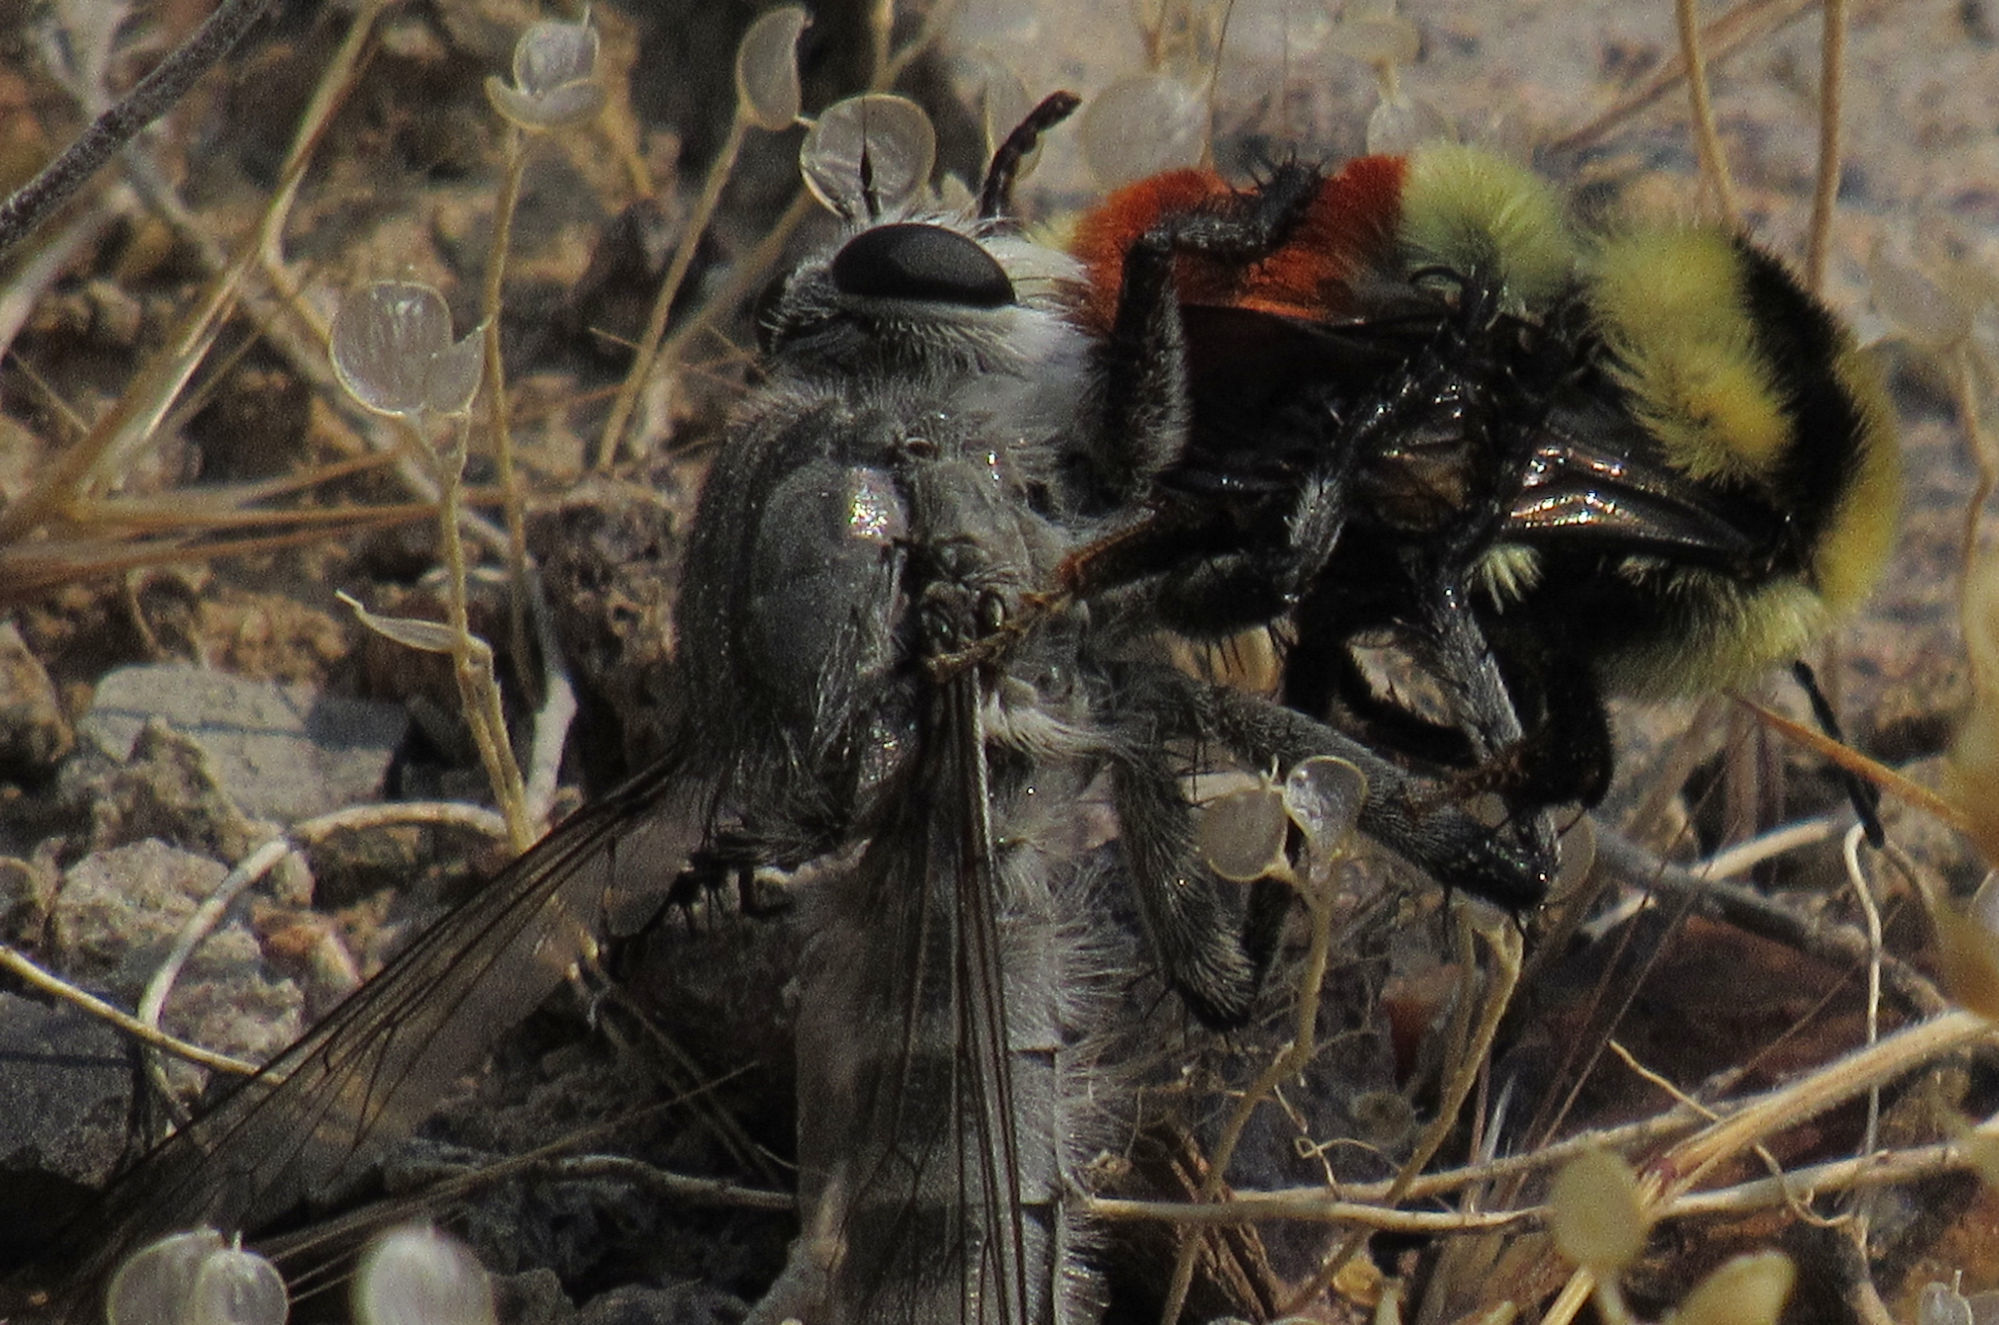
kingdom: Animalia
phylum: Arthropoda
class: Insecta
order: Hymenoptera
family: Apidae
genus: Bombus
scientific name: Bombus huntii
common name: Hunt bumble bee
